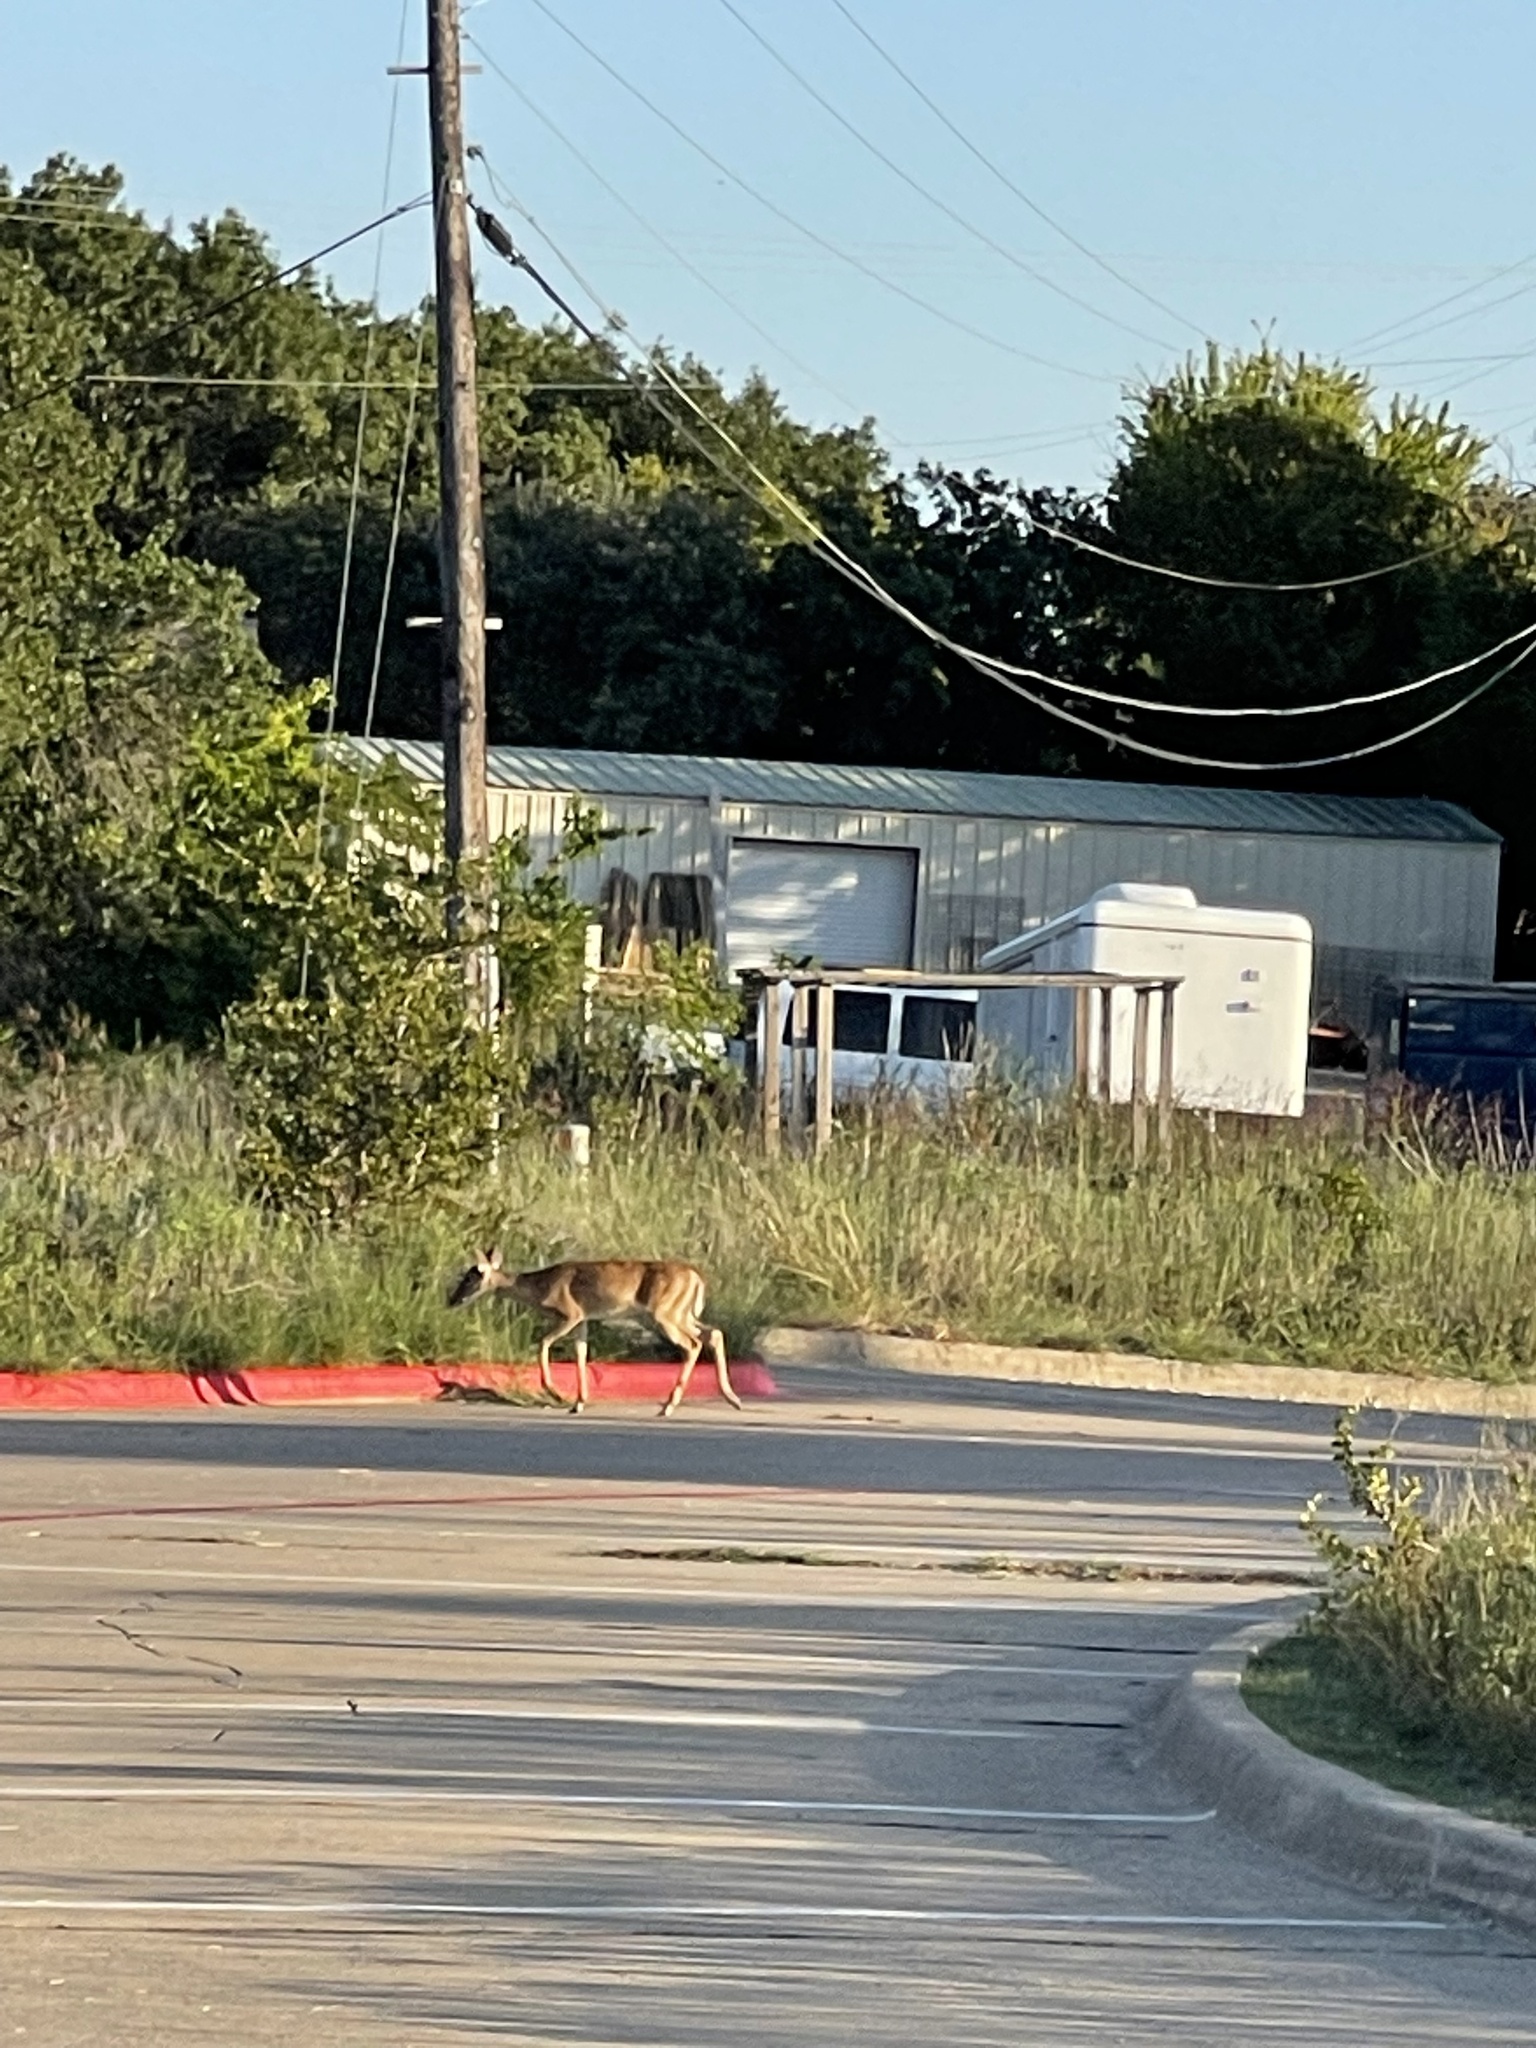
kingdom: Animalia
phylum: Chordata
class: Mammalia
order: Artiodactyla
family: Cervidae
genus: Odocoileus
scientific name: Odocoileus virginianus
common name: White-tailed deer
